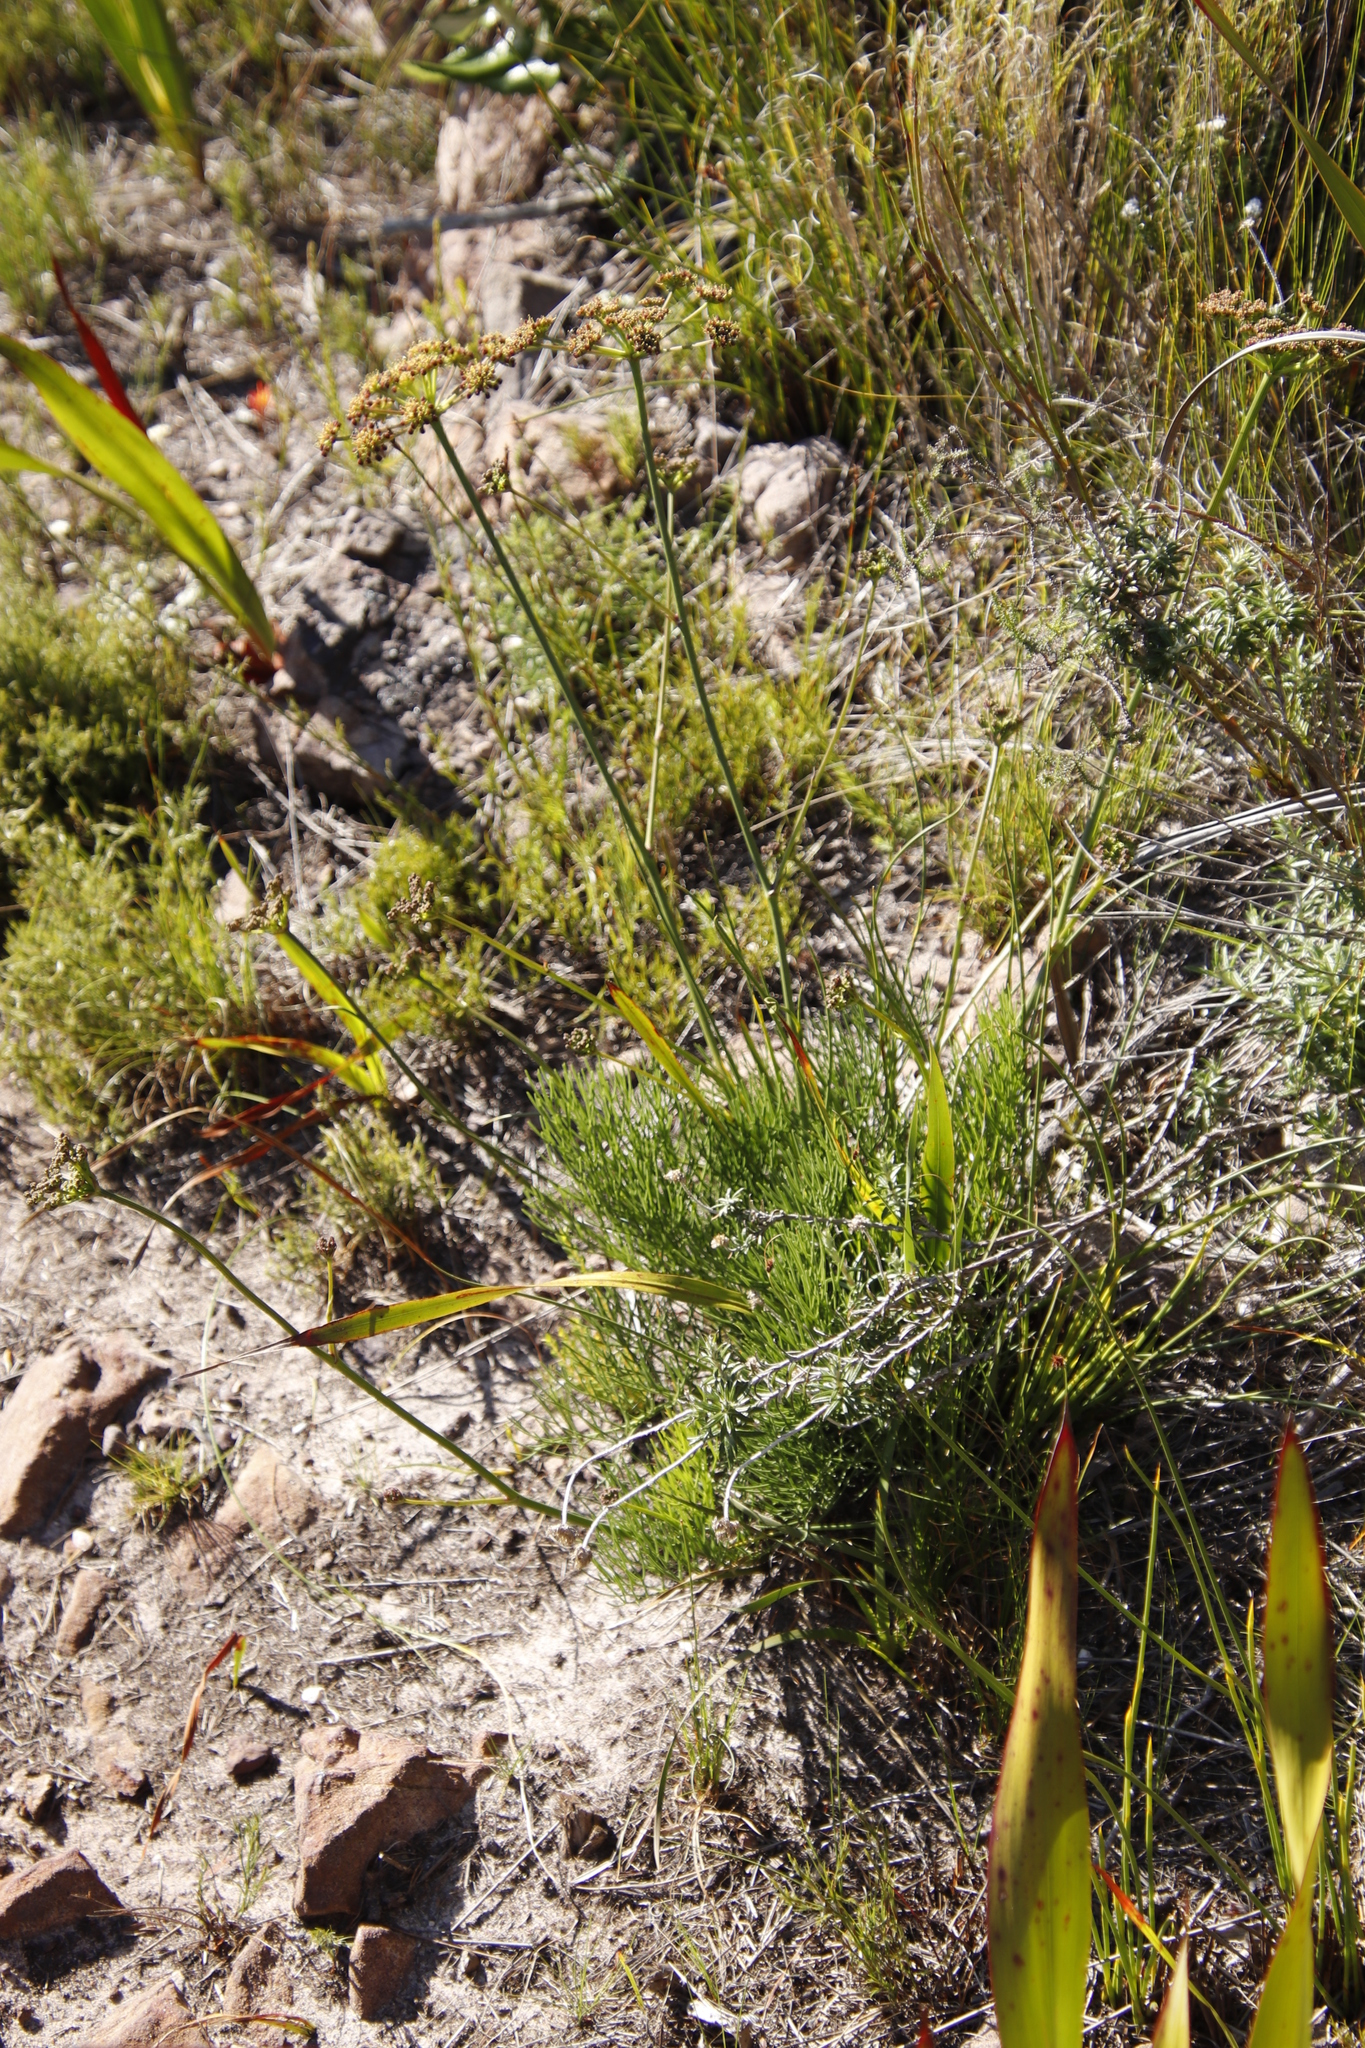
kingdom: Plantae
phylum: Tracheophyta
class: Magnoliopsida
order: Apiales
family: Apiaceae
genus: Nanobubon
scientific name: Nanobubon strictum
